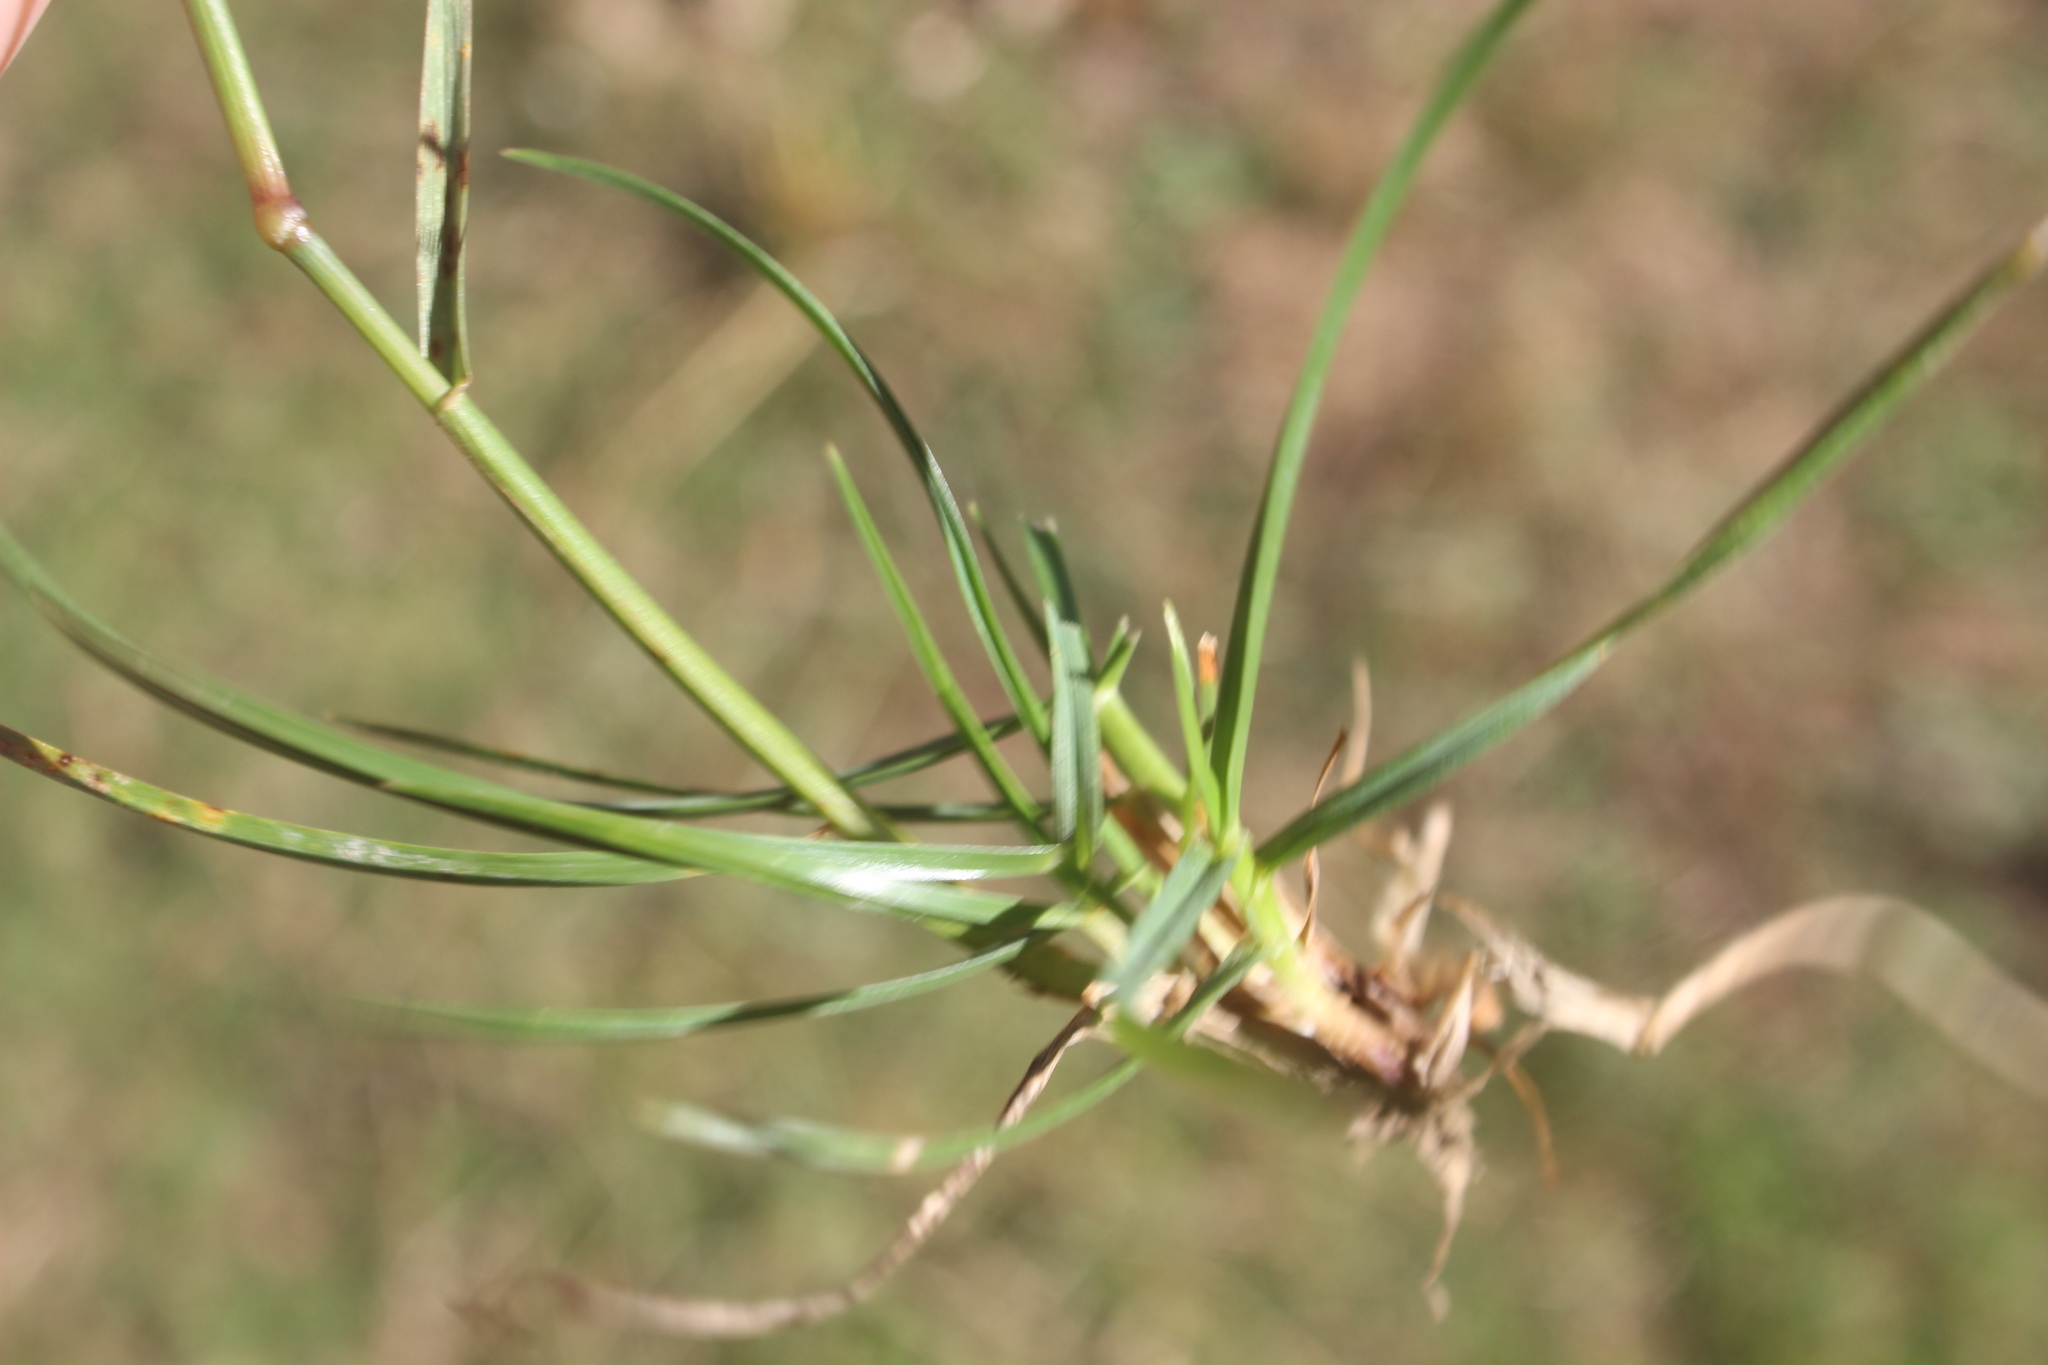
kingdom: Plantae
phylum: Tracheophyta
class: Liliopsida
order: Poales
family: Poaceae
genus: Lolium
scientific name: Lolium perenne
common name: Perennial ryegrass
